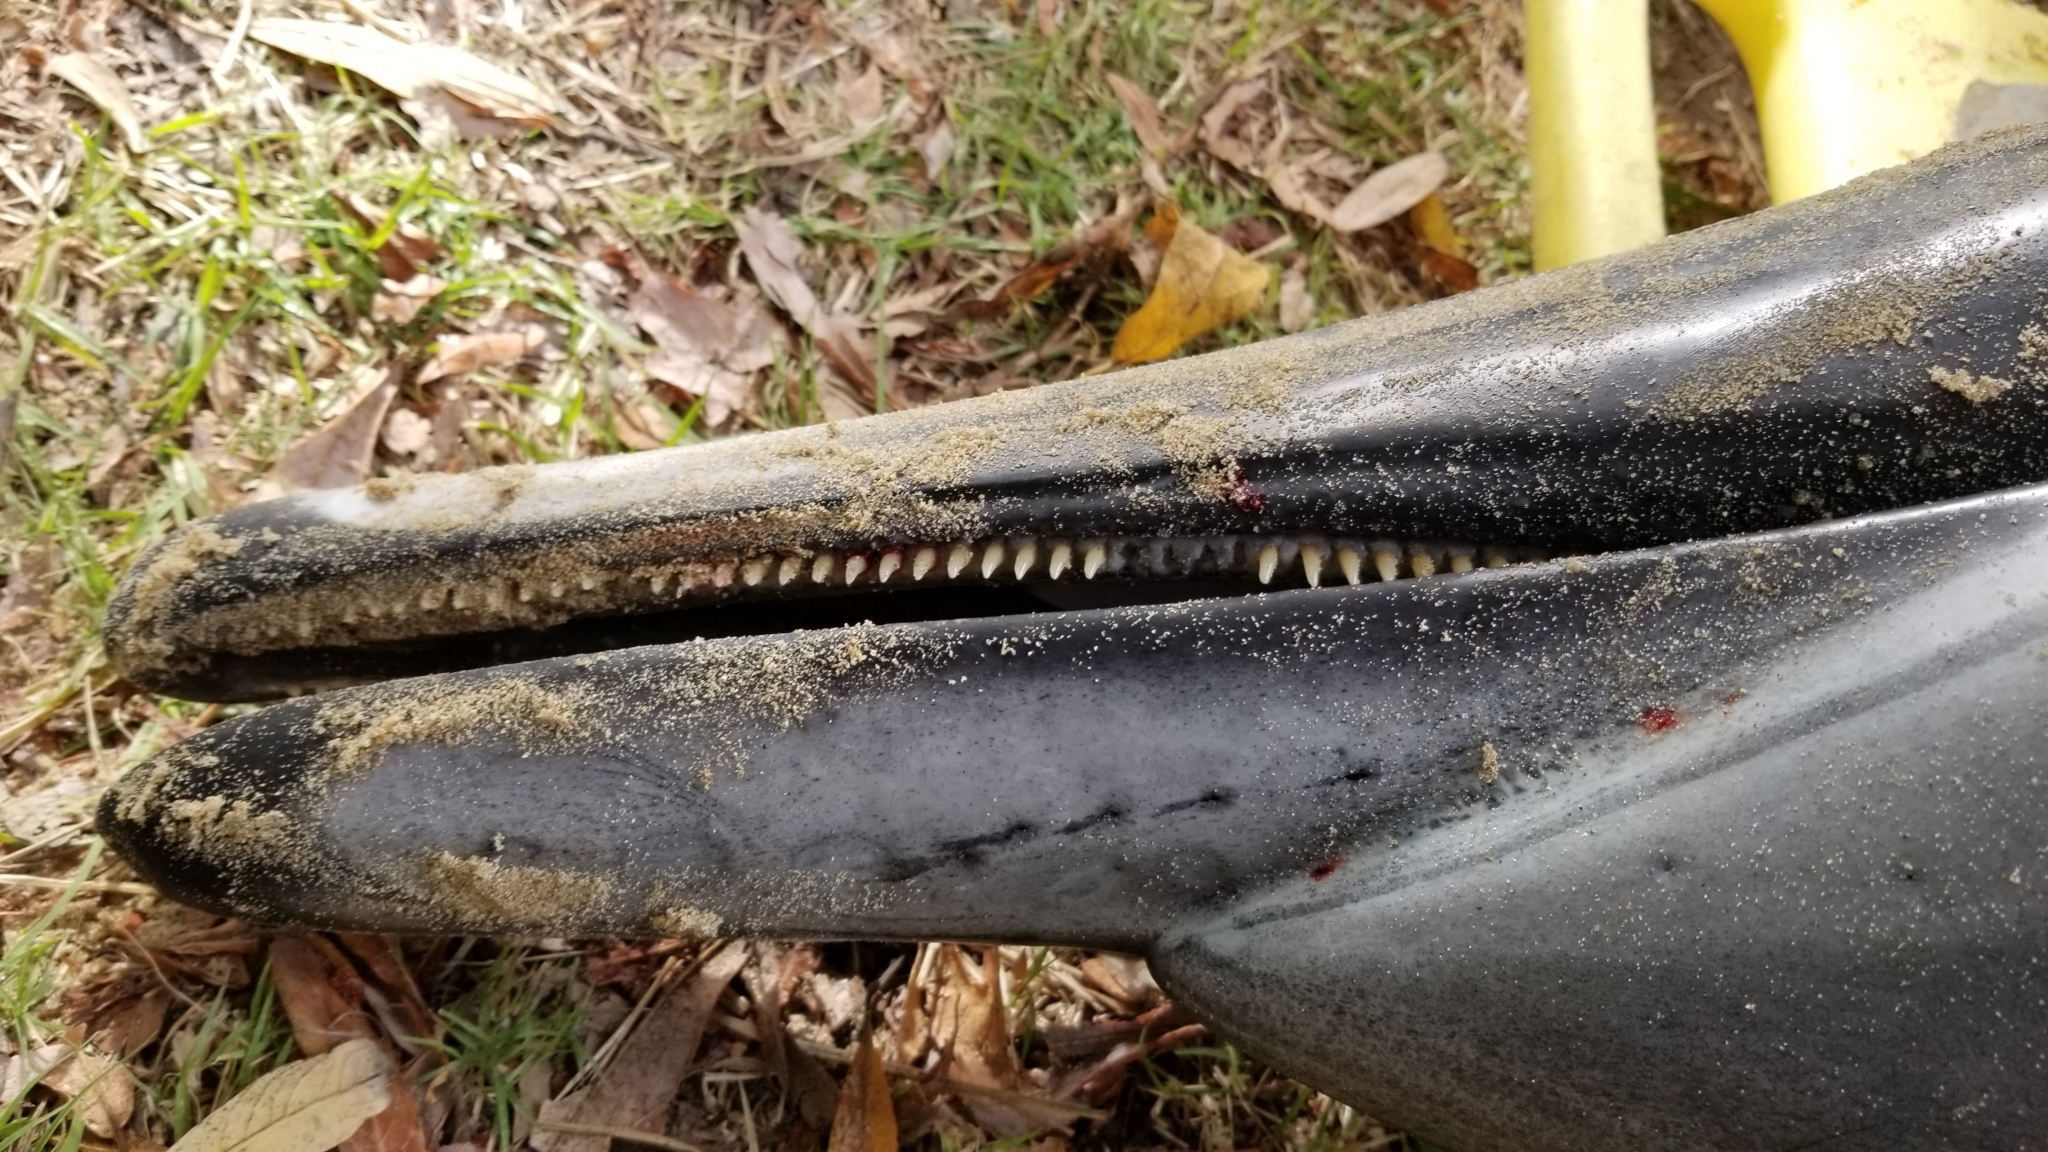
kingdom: Animalia
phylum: Chordata
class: Mammalia
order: Cetacea
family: Delphinidae
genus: Delphinus
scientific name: Delphinus delphis
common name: Common dolphin
